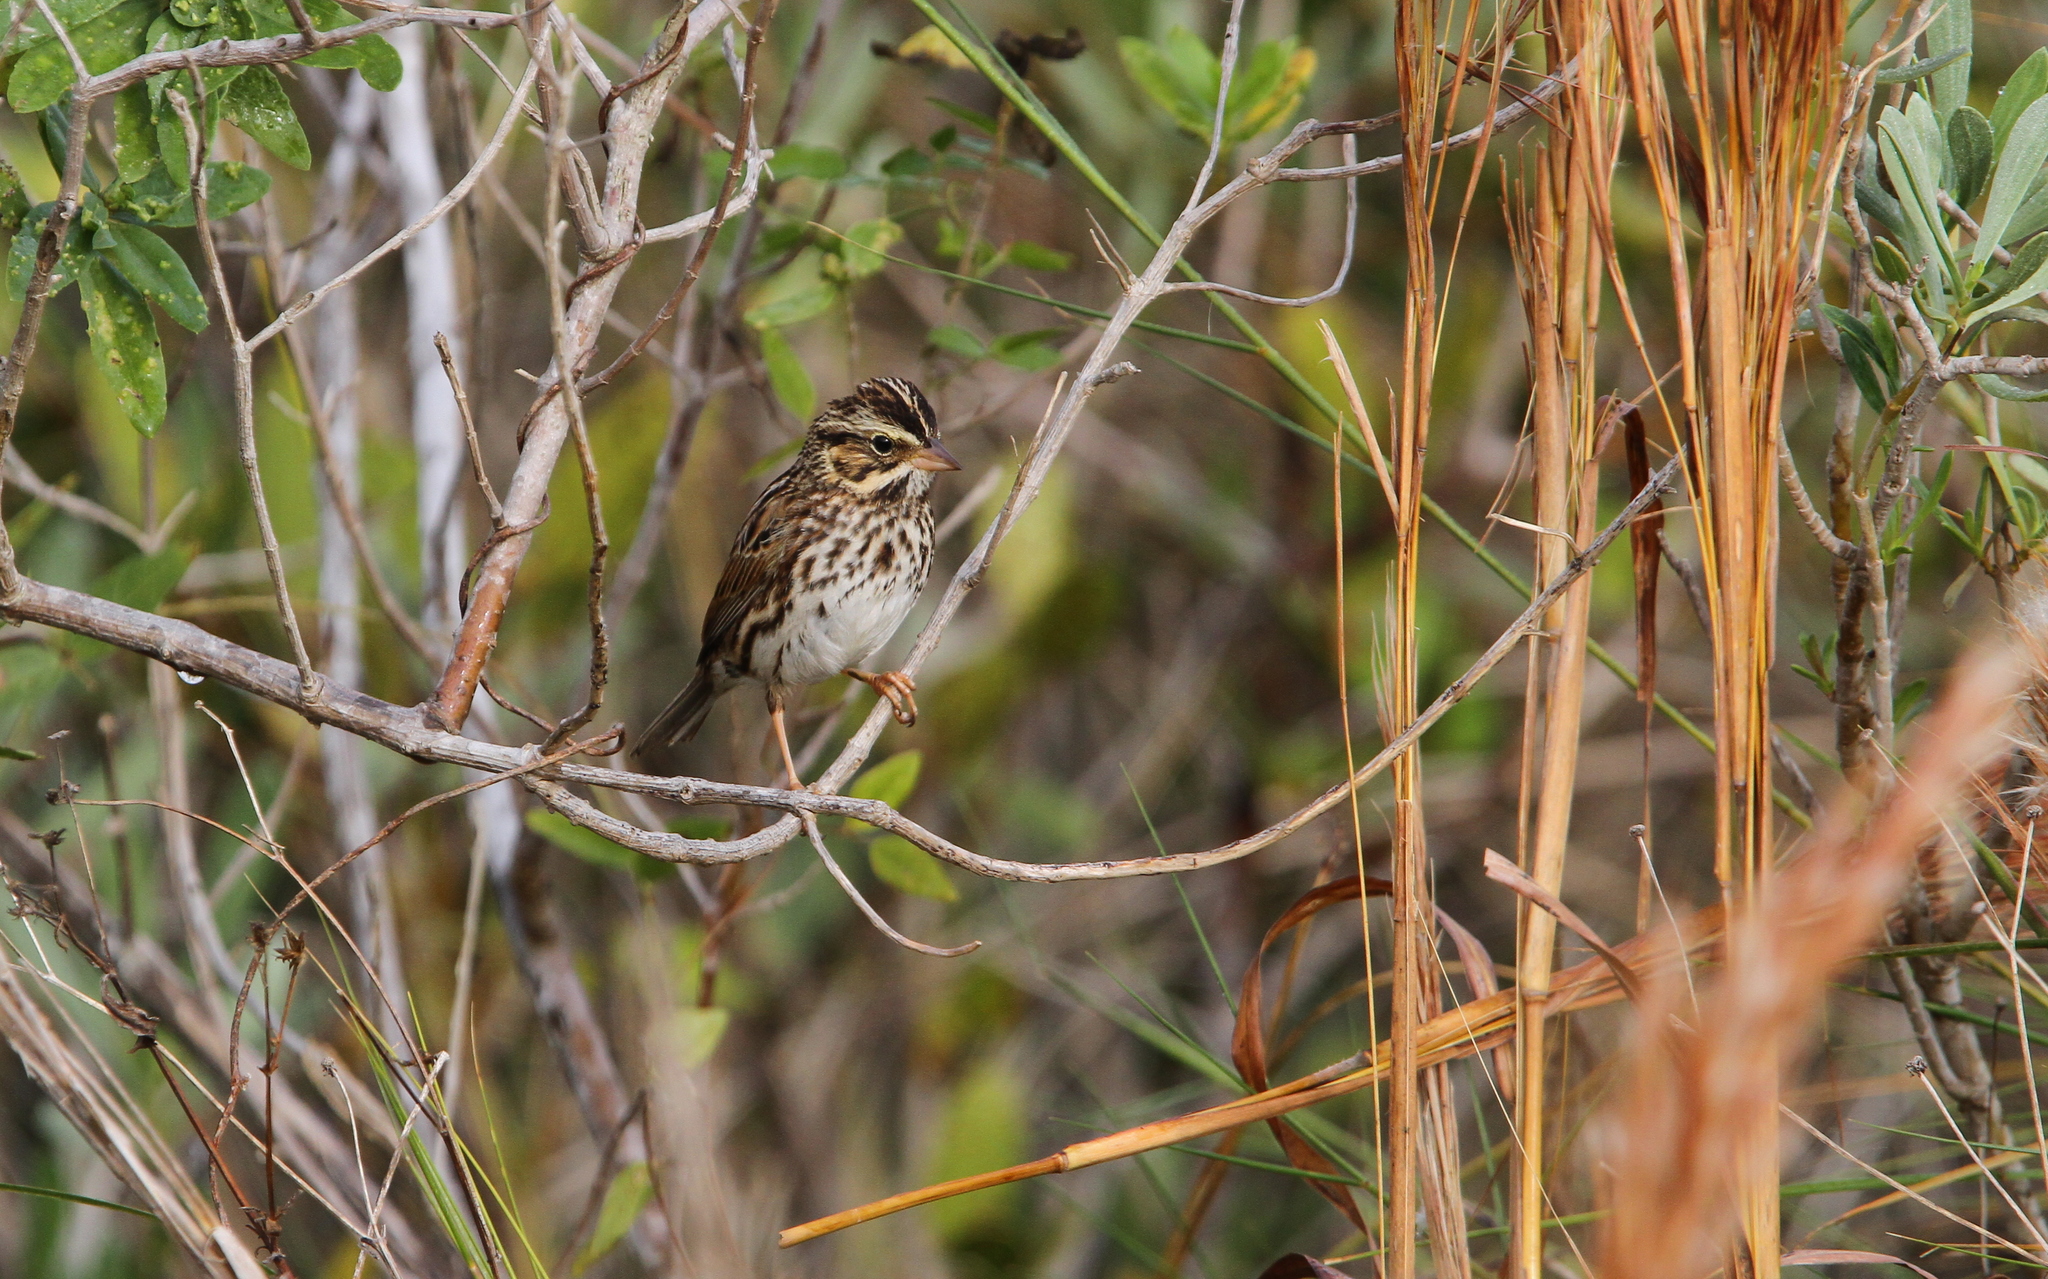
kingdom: Animalia
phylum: Chordata
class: Aves
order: Passeriformes
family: Passerellidae
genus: Passerculus
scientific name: Passerculus sandwichensis
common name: Savannah sparrow
